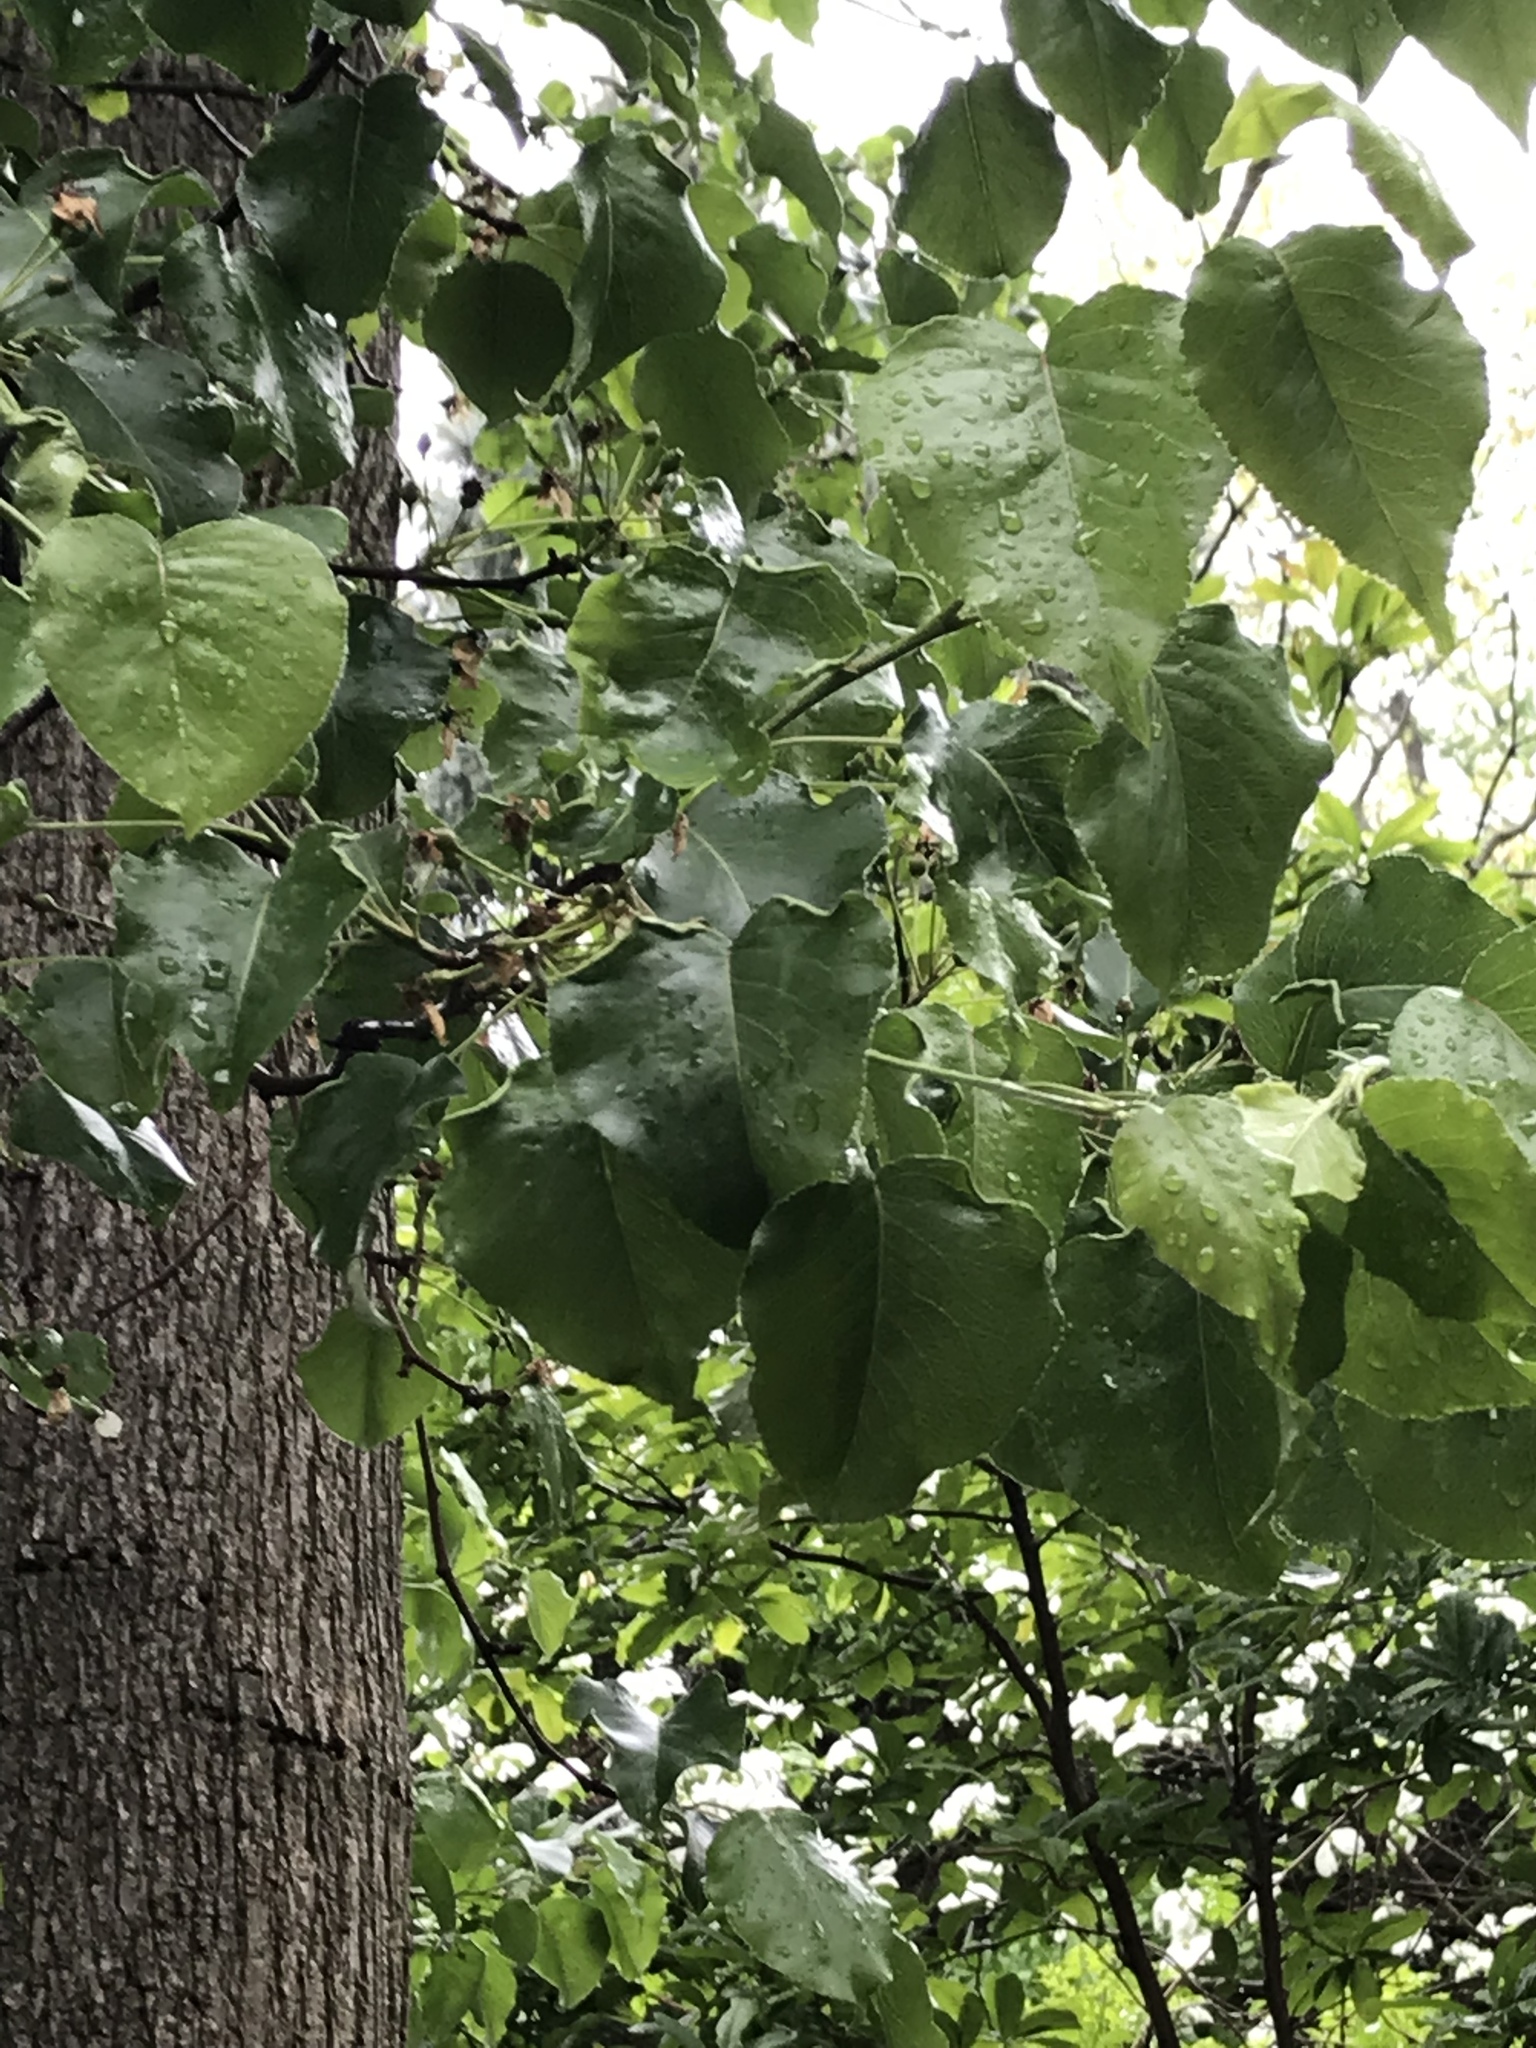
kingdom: Plantae
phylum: Tracheophyta
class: Magnoliopsida
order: Rosales
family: Rosaceae
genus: Pyrus
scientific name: Pyrus calleryana
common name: Callery pear
